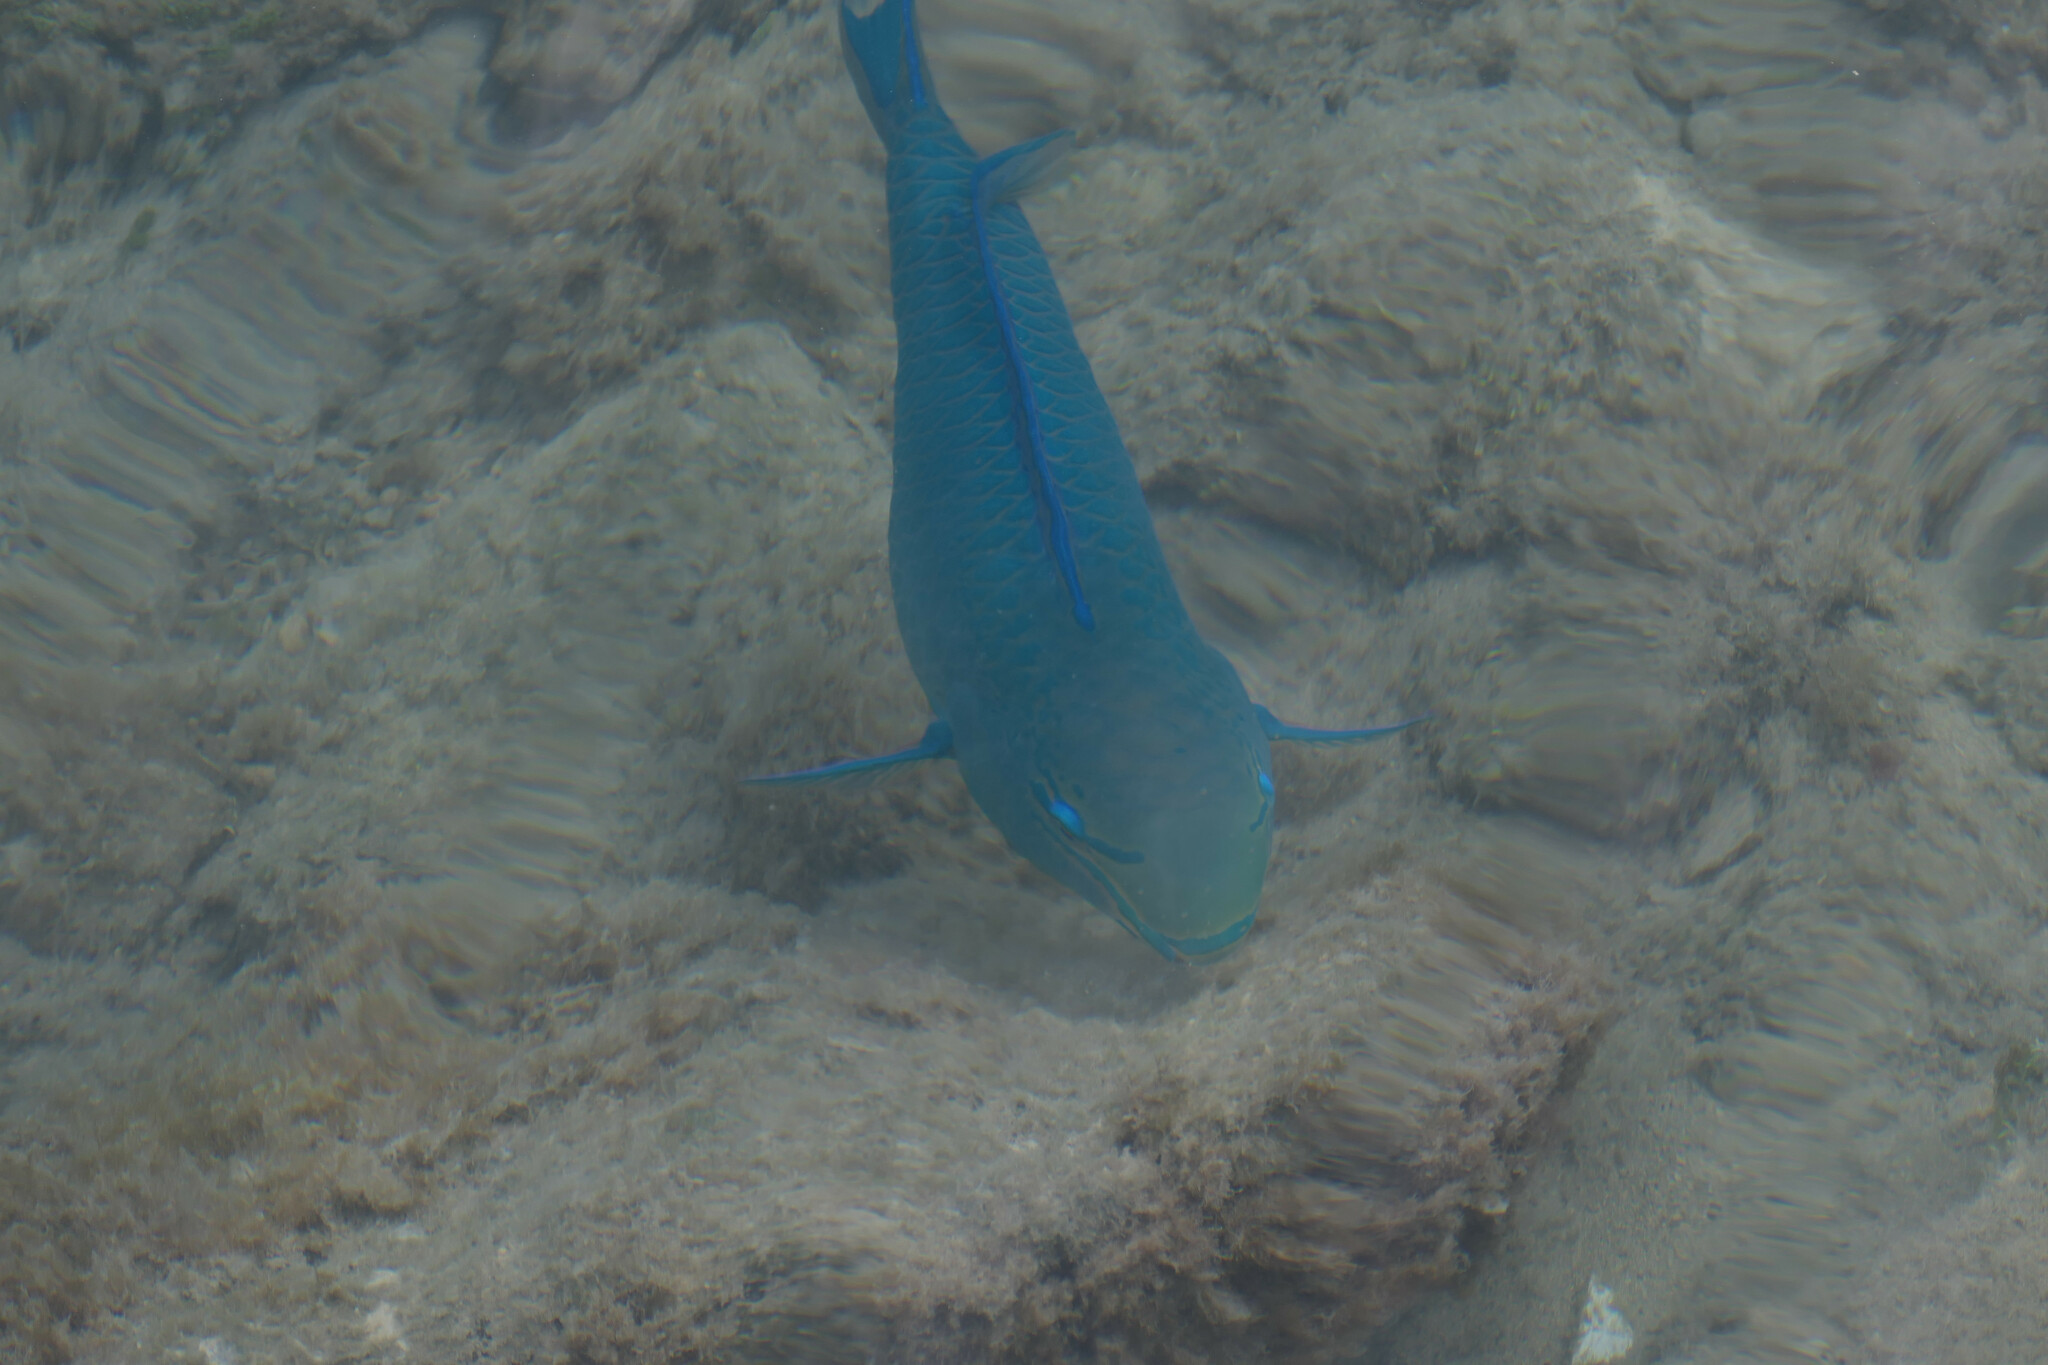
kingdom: Animalia
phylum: Chordata
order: Perciformes
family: Scaridae
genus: Scarus
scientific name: Scarus vetula
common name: Queen parrotfish
